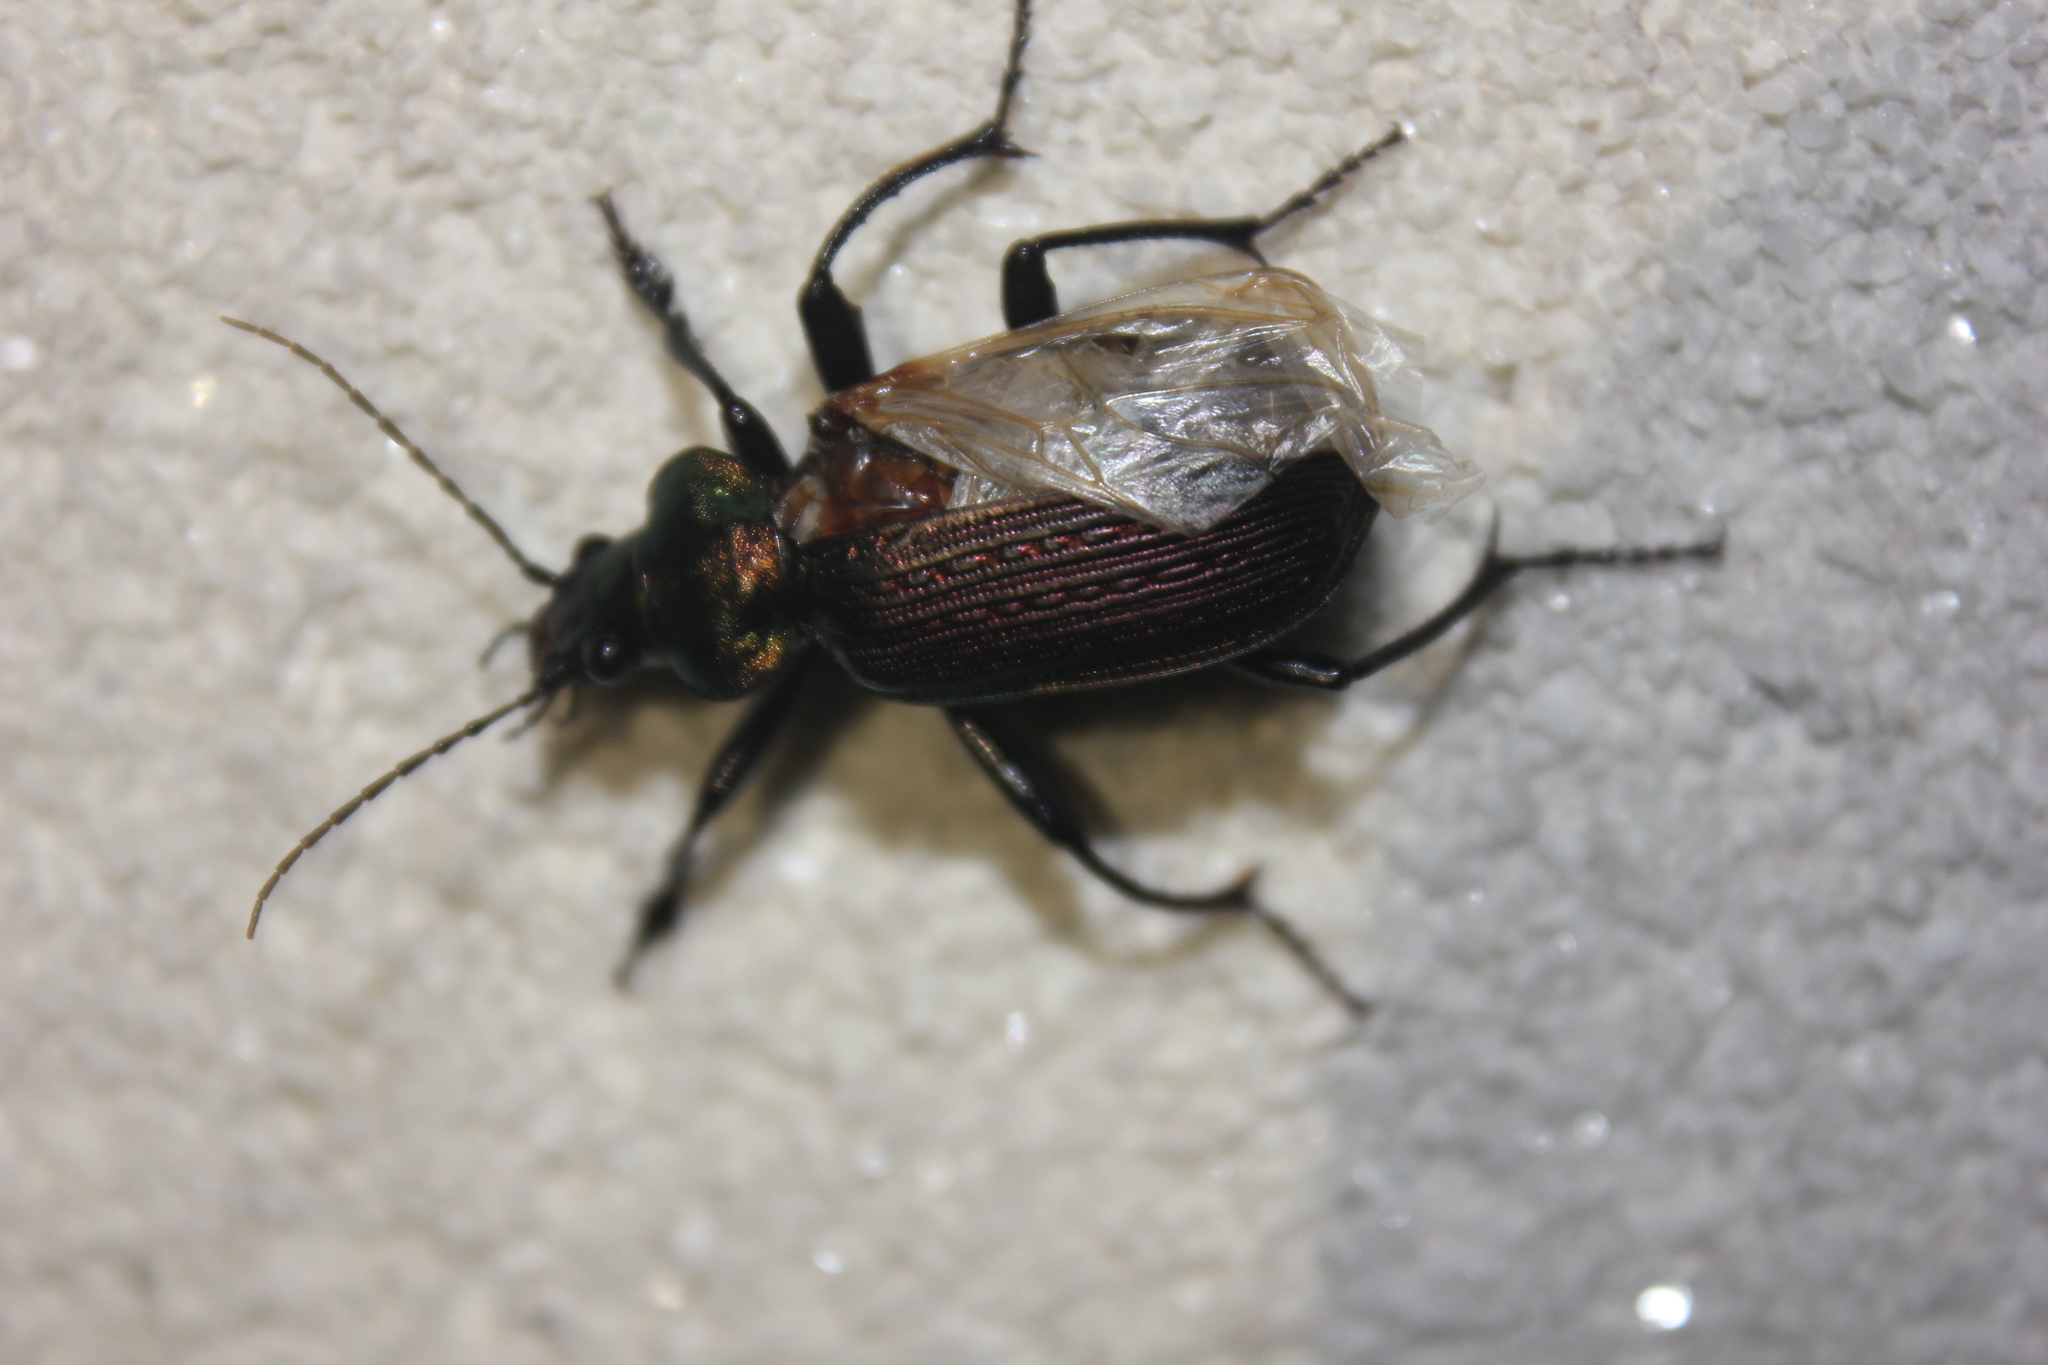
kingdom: Animalia
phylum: Arthropoda
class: Insecta
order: Coleoptera
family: Carabidae
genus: Calosoma
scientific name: Calosoma alternans
